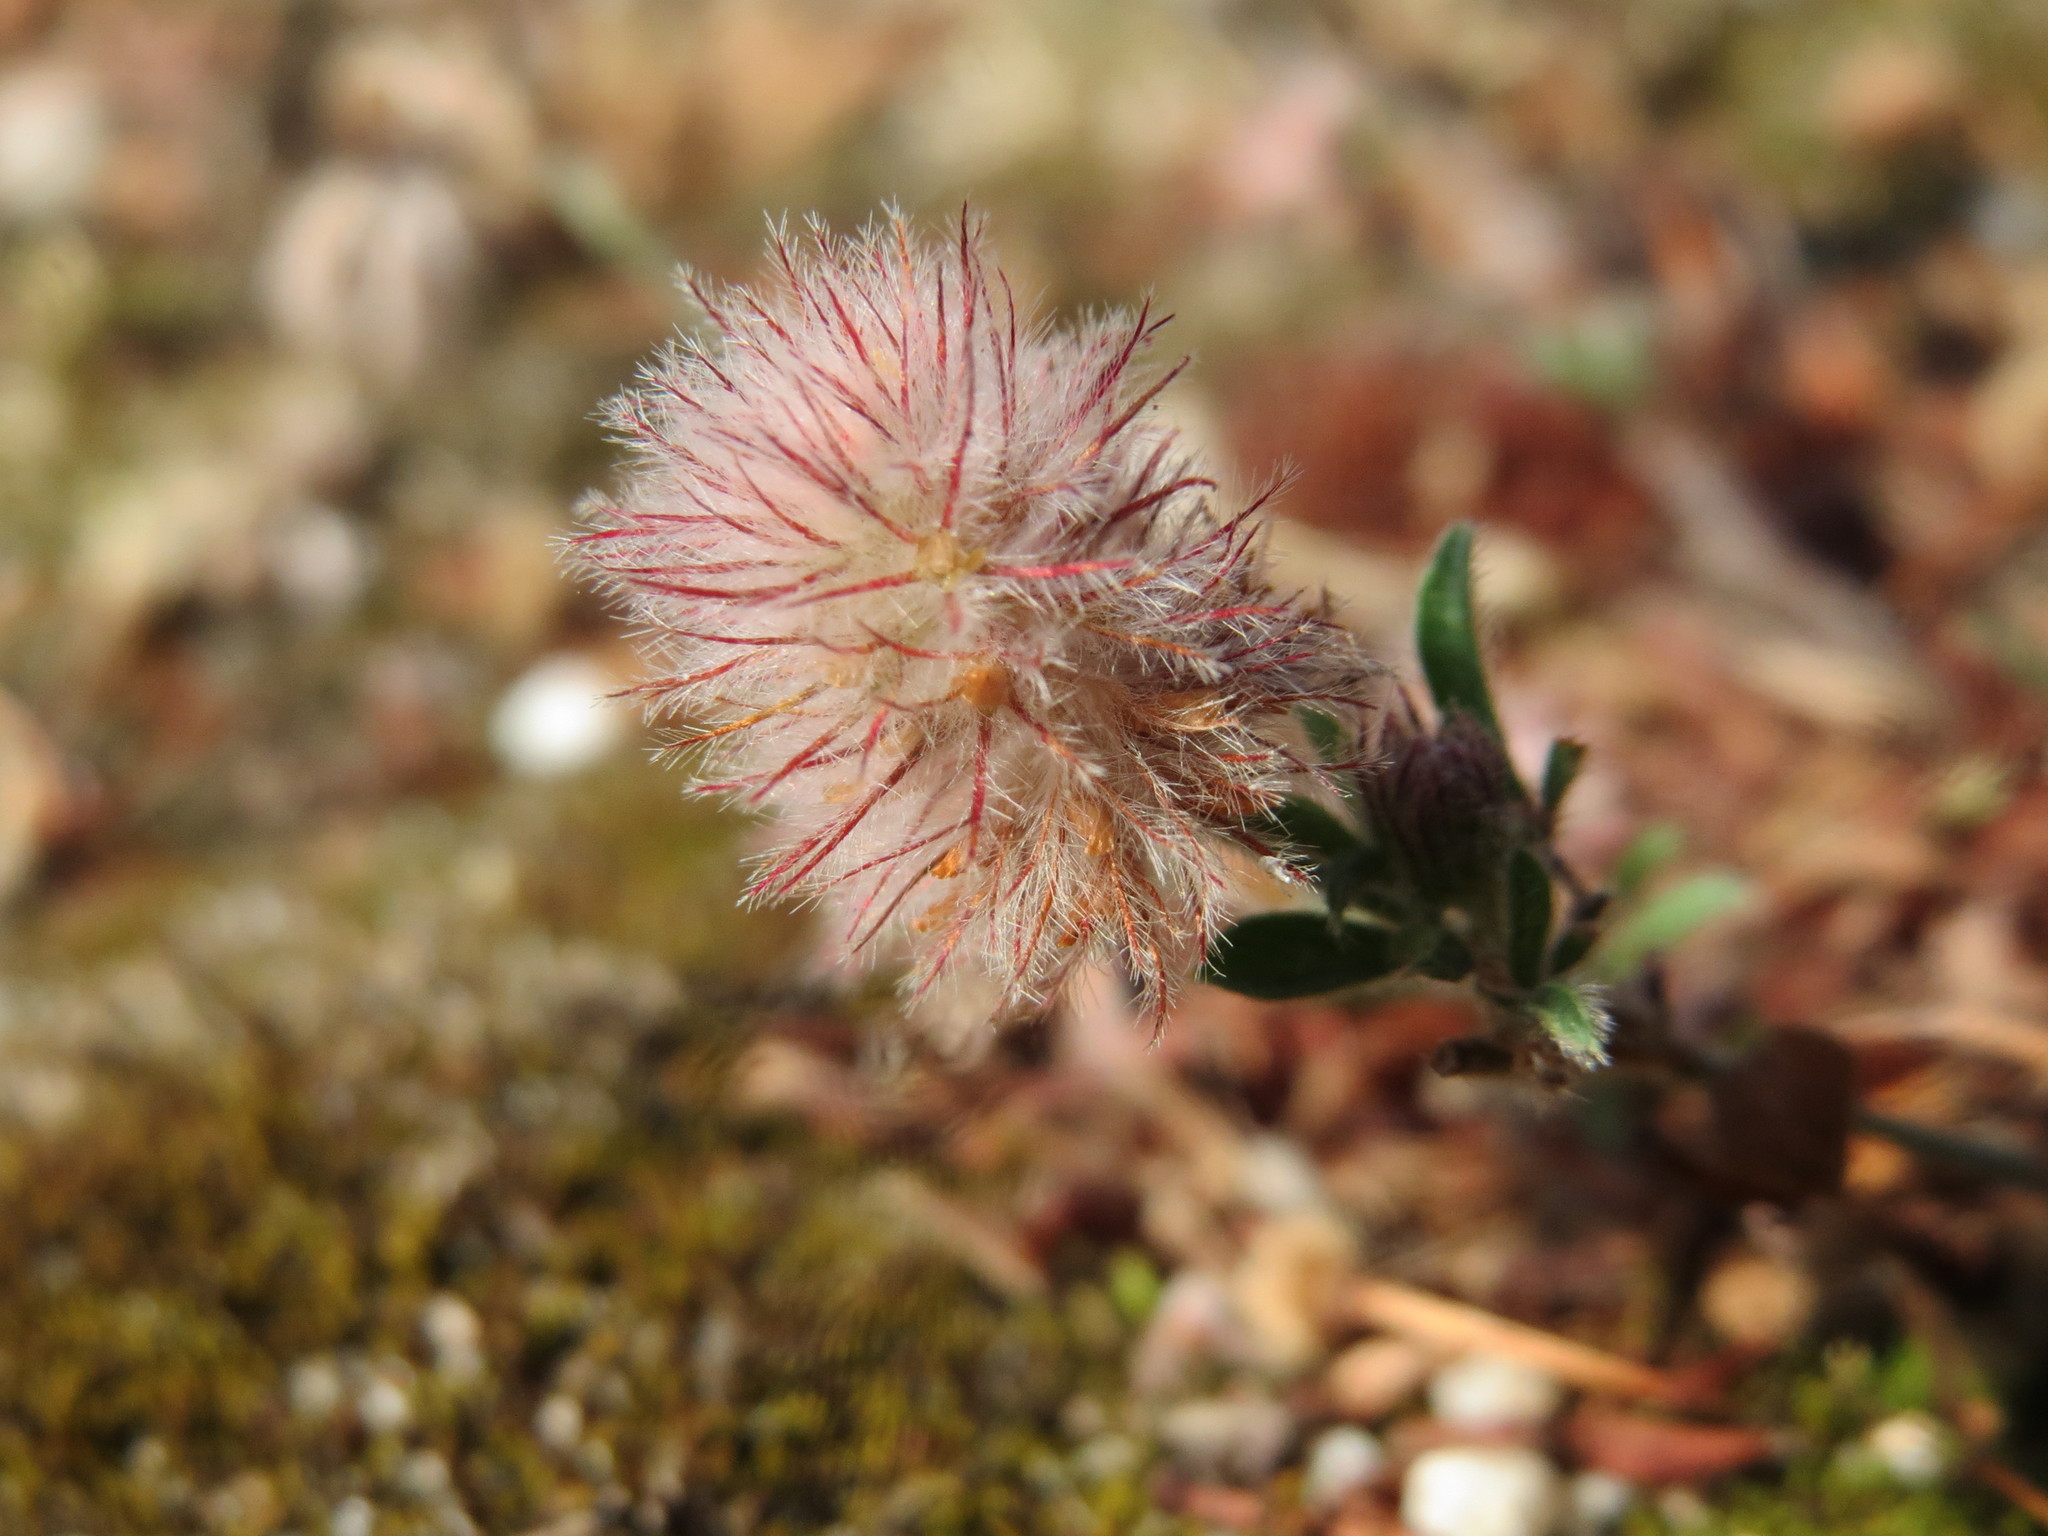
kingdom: Plantae
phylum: Tracheophyta
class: Magnoliopsida
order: Fabales
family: Fabaceae
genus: Trifolium
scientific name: Trifolium arvense
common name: Hare's-foot clover
